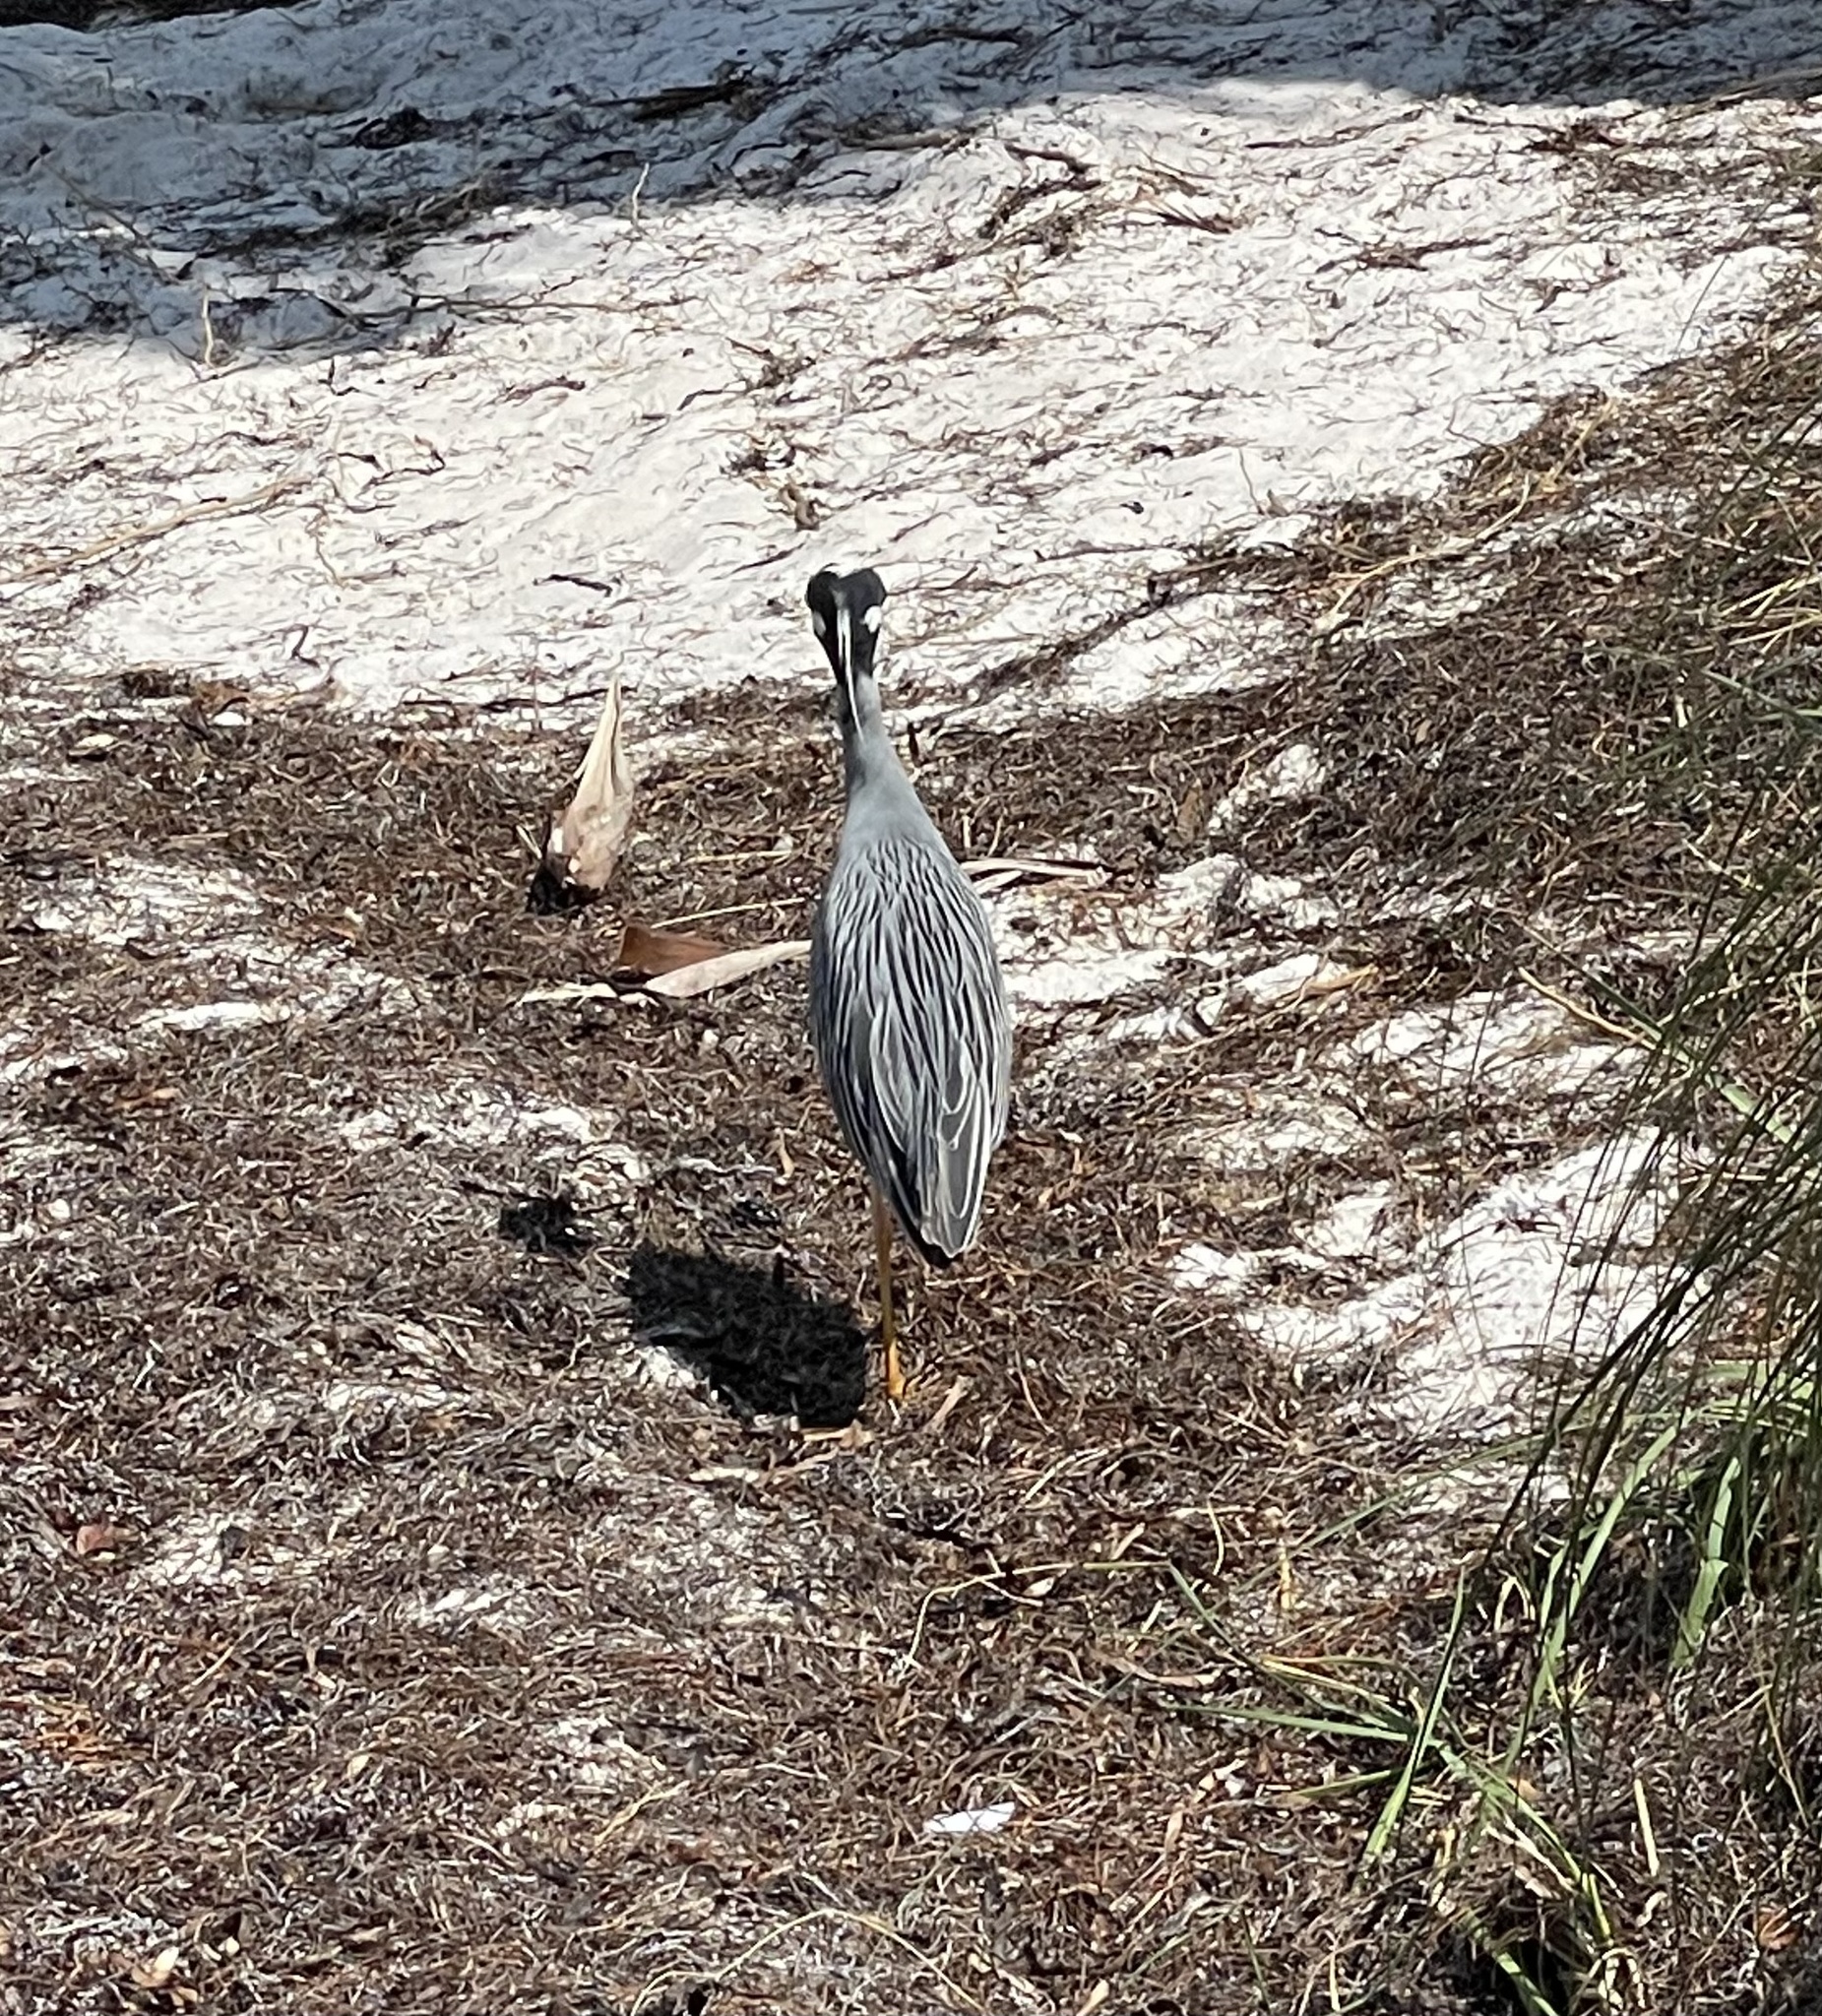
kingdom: Animalia
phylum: Chordata
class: Aves
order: Pelecaniformes
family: Ardeidae
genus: Nyctanassa
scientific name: Nyctanassa violacea
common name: Yellow-crowned night heron
